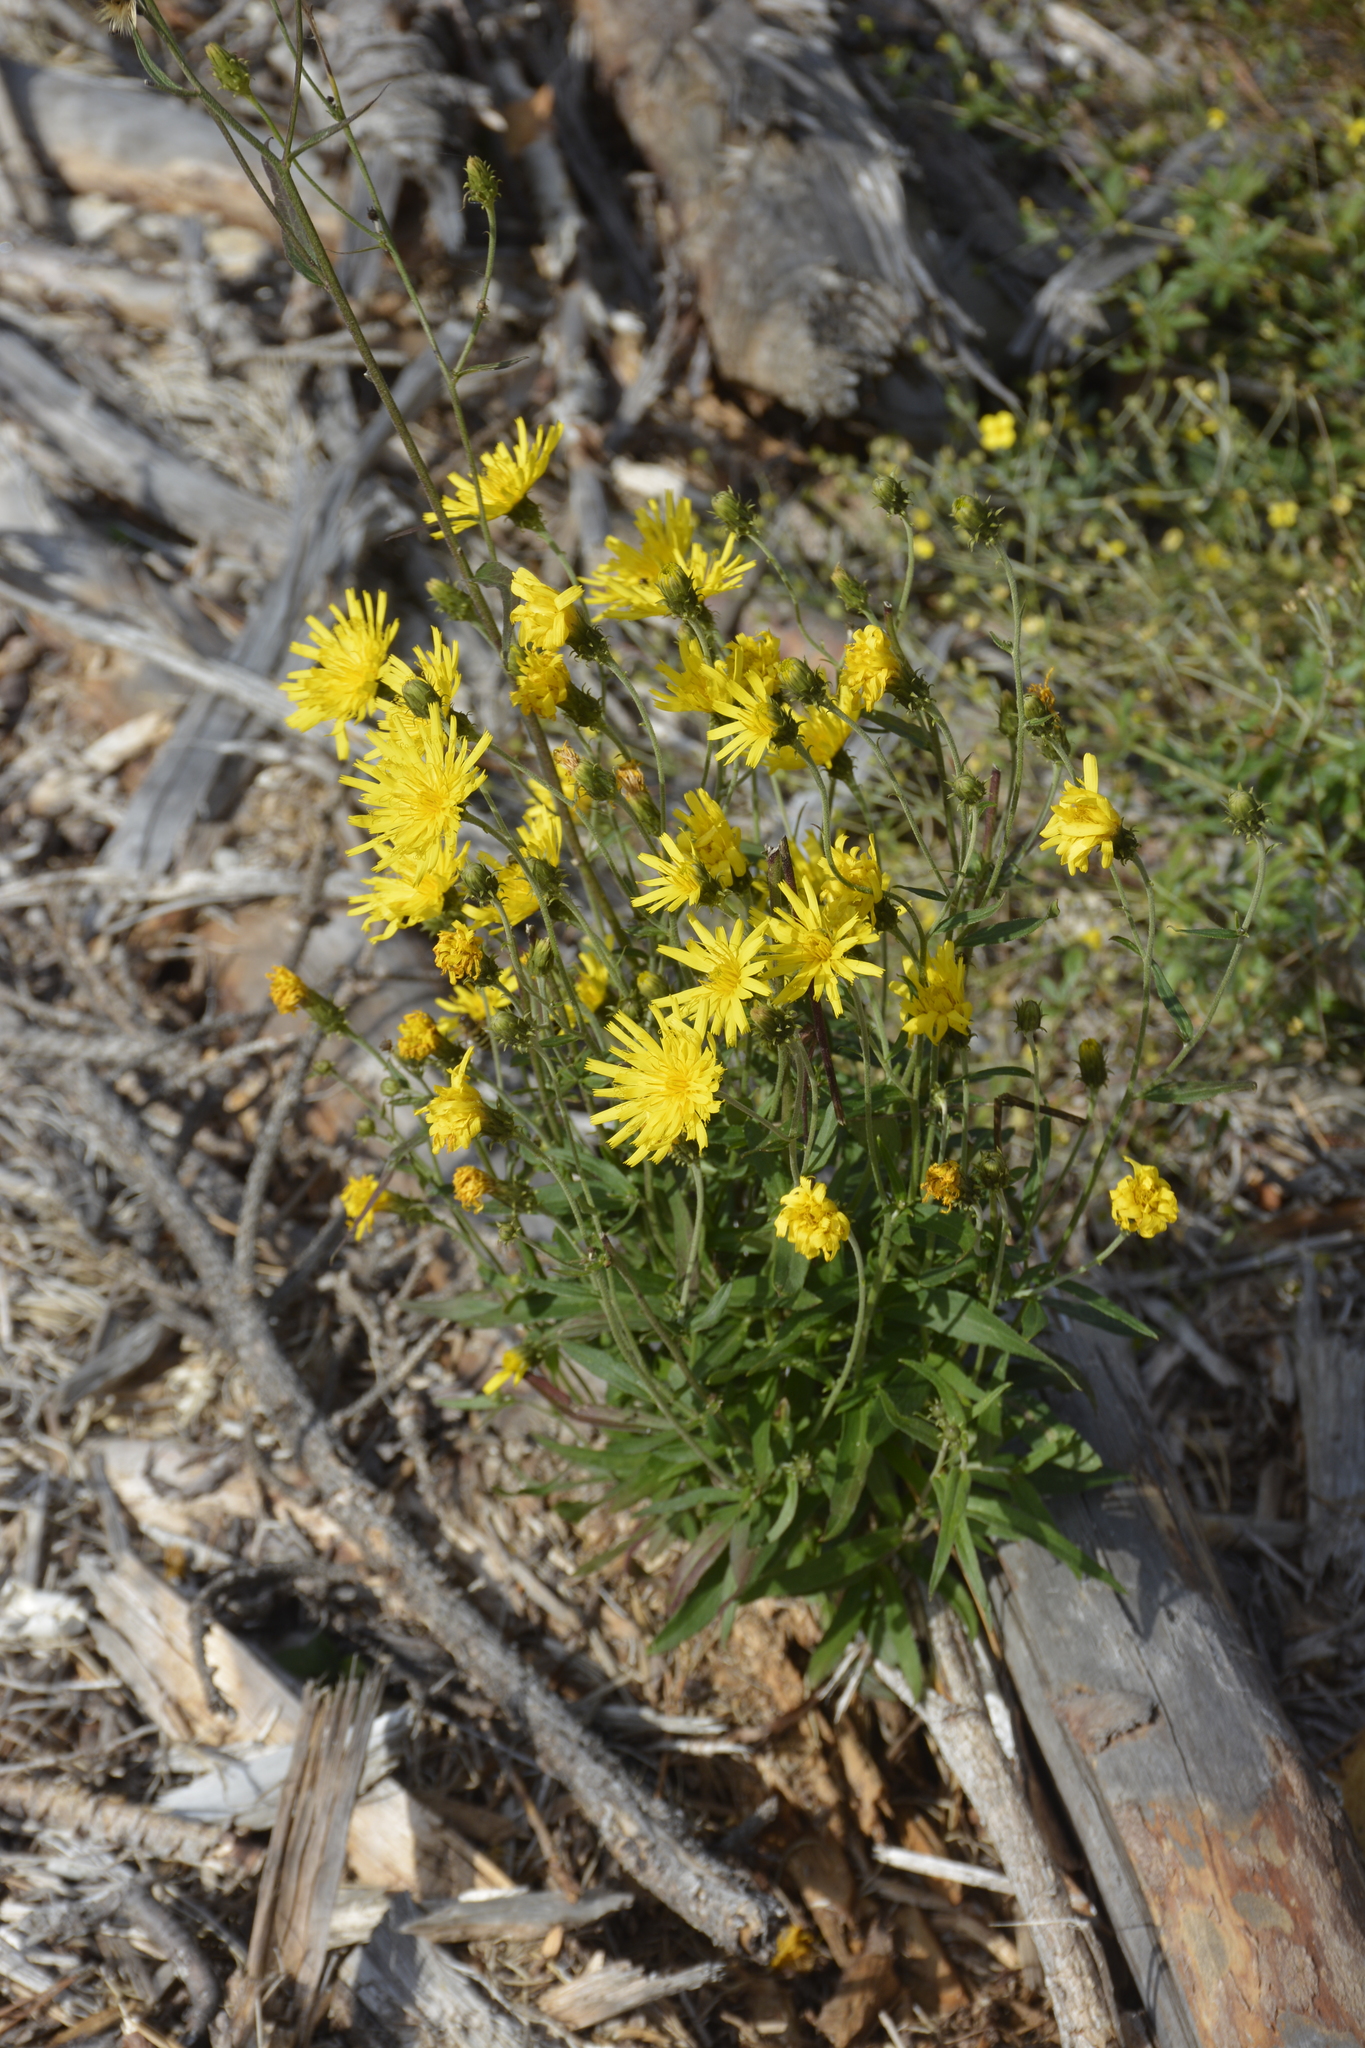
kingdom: Plantae
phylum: Tracheophyta
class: Magnoliopsida
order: Asterales
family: Asteraceae
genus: Hieracium
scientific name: Hieracium umbellatum
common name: Northern hawkweed
